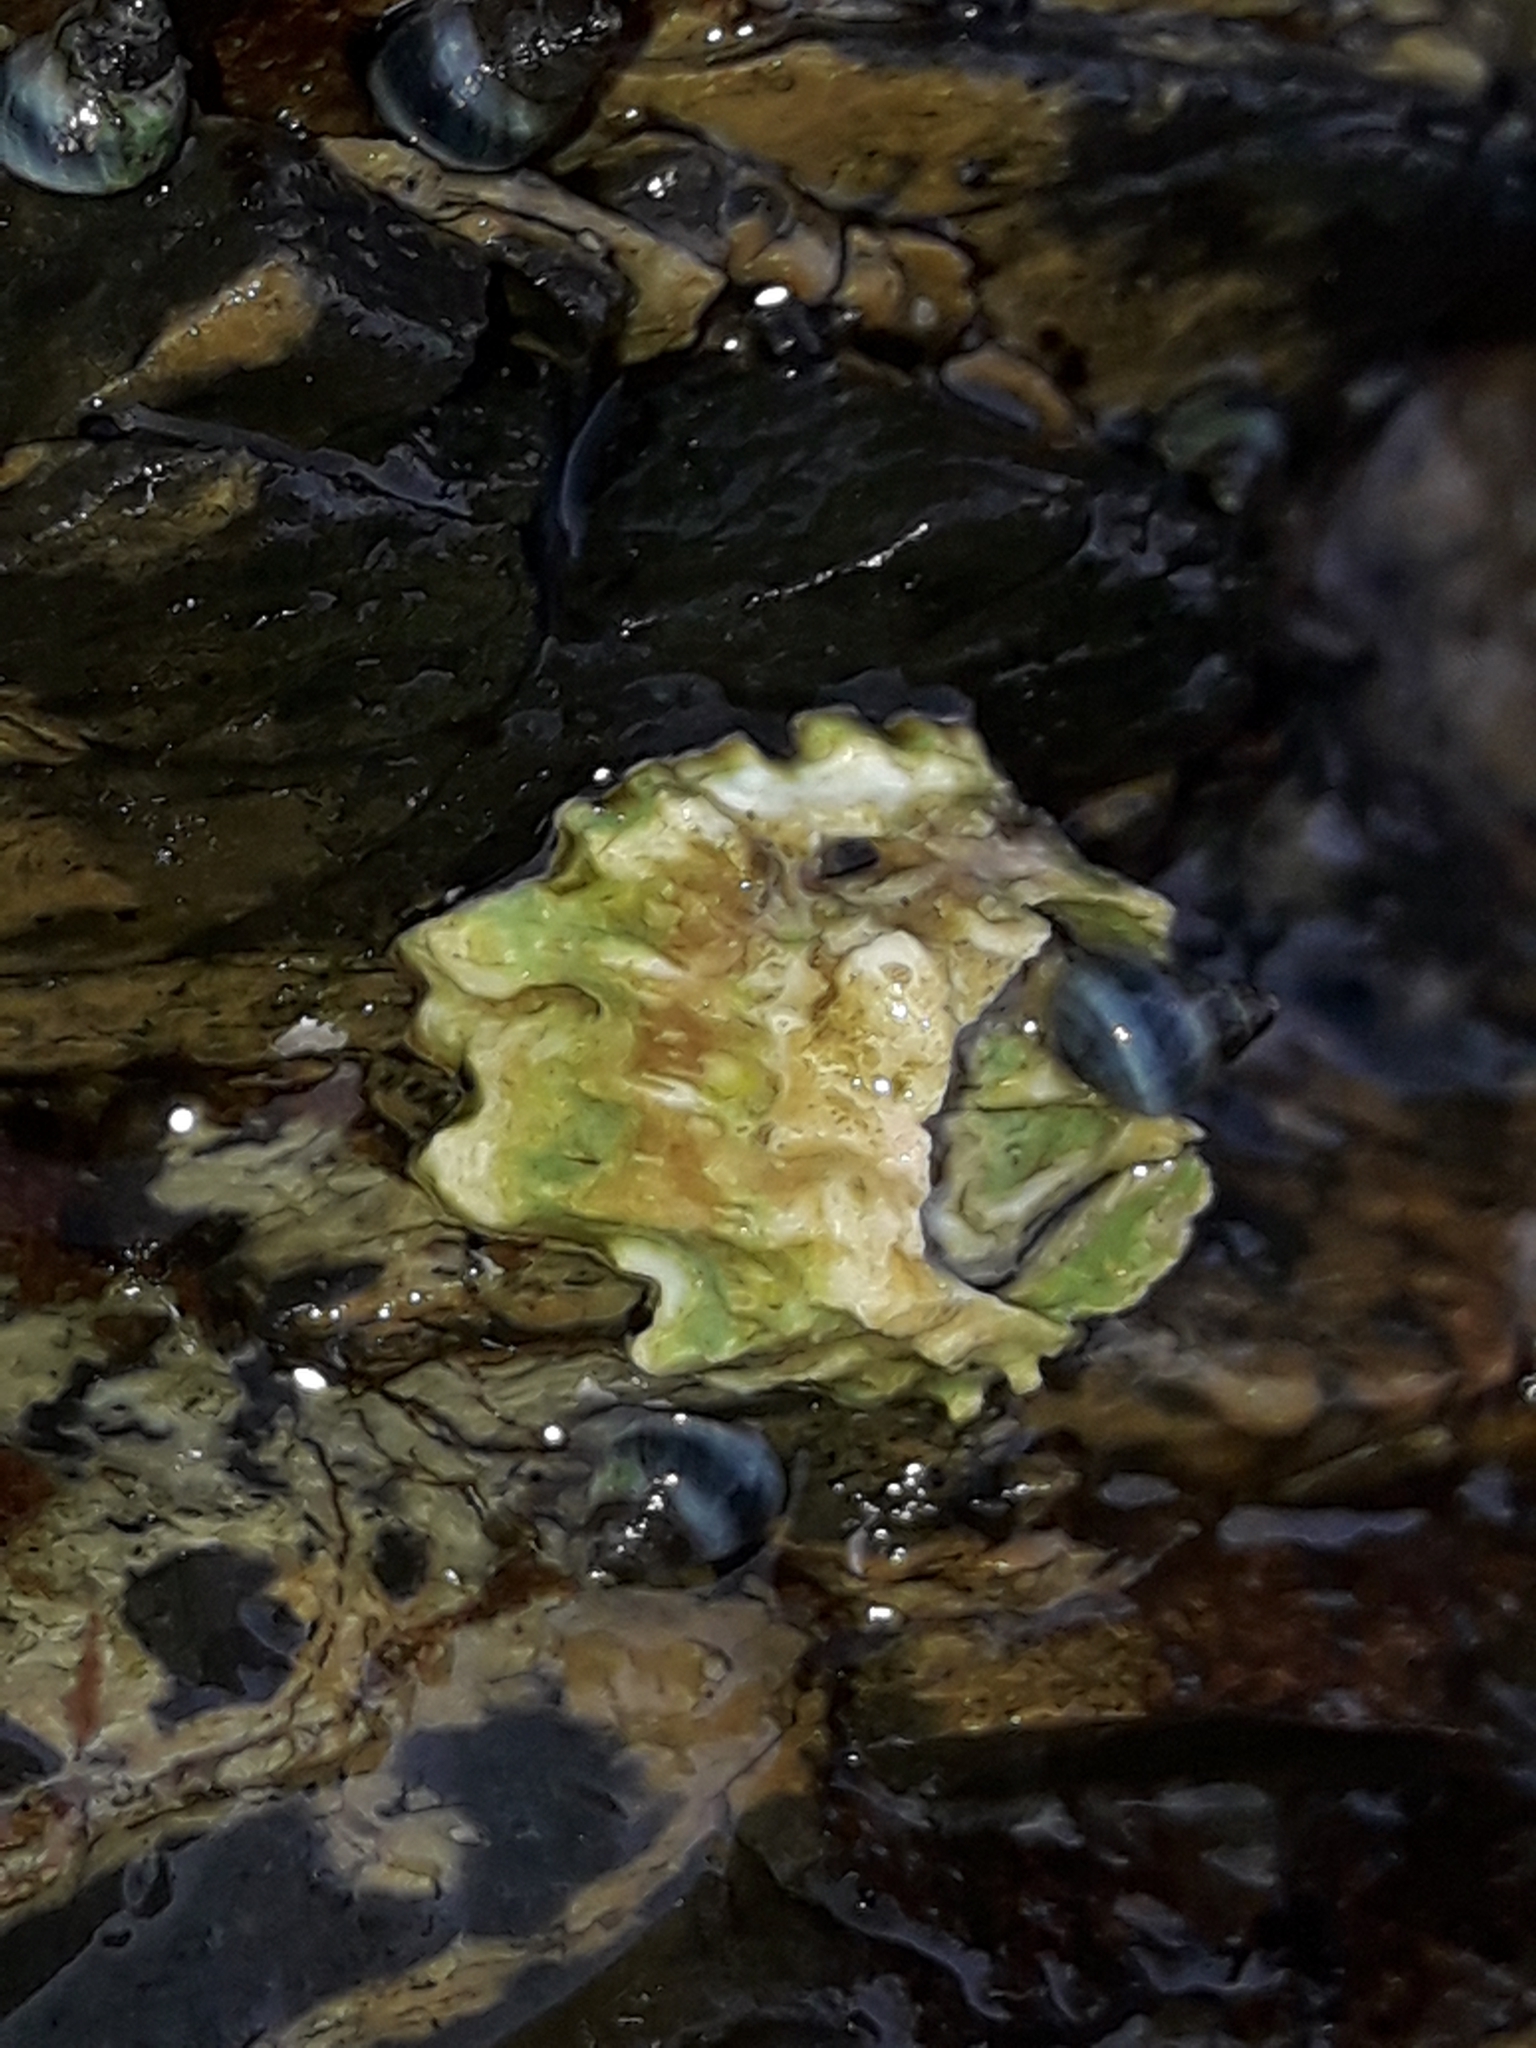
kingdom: Animalia
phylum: Arthropoda
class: Maxillopoda
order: Sessilia
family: Tetraclitidae
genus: Epopella
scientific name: Epopella plicata
